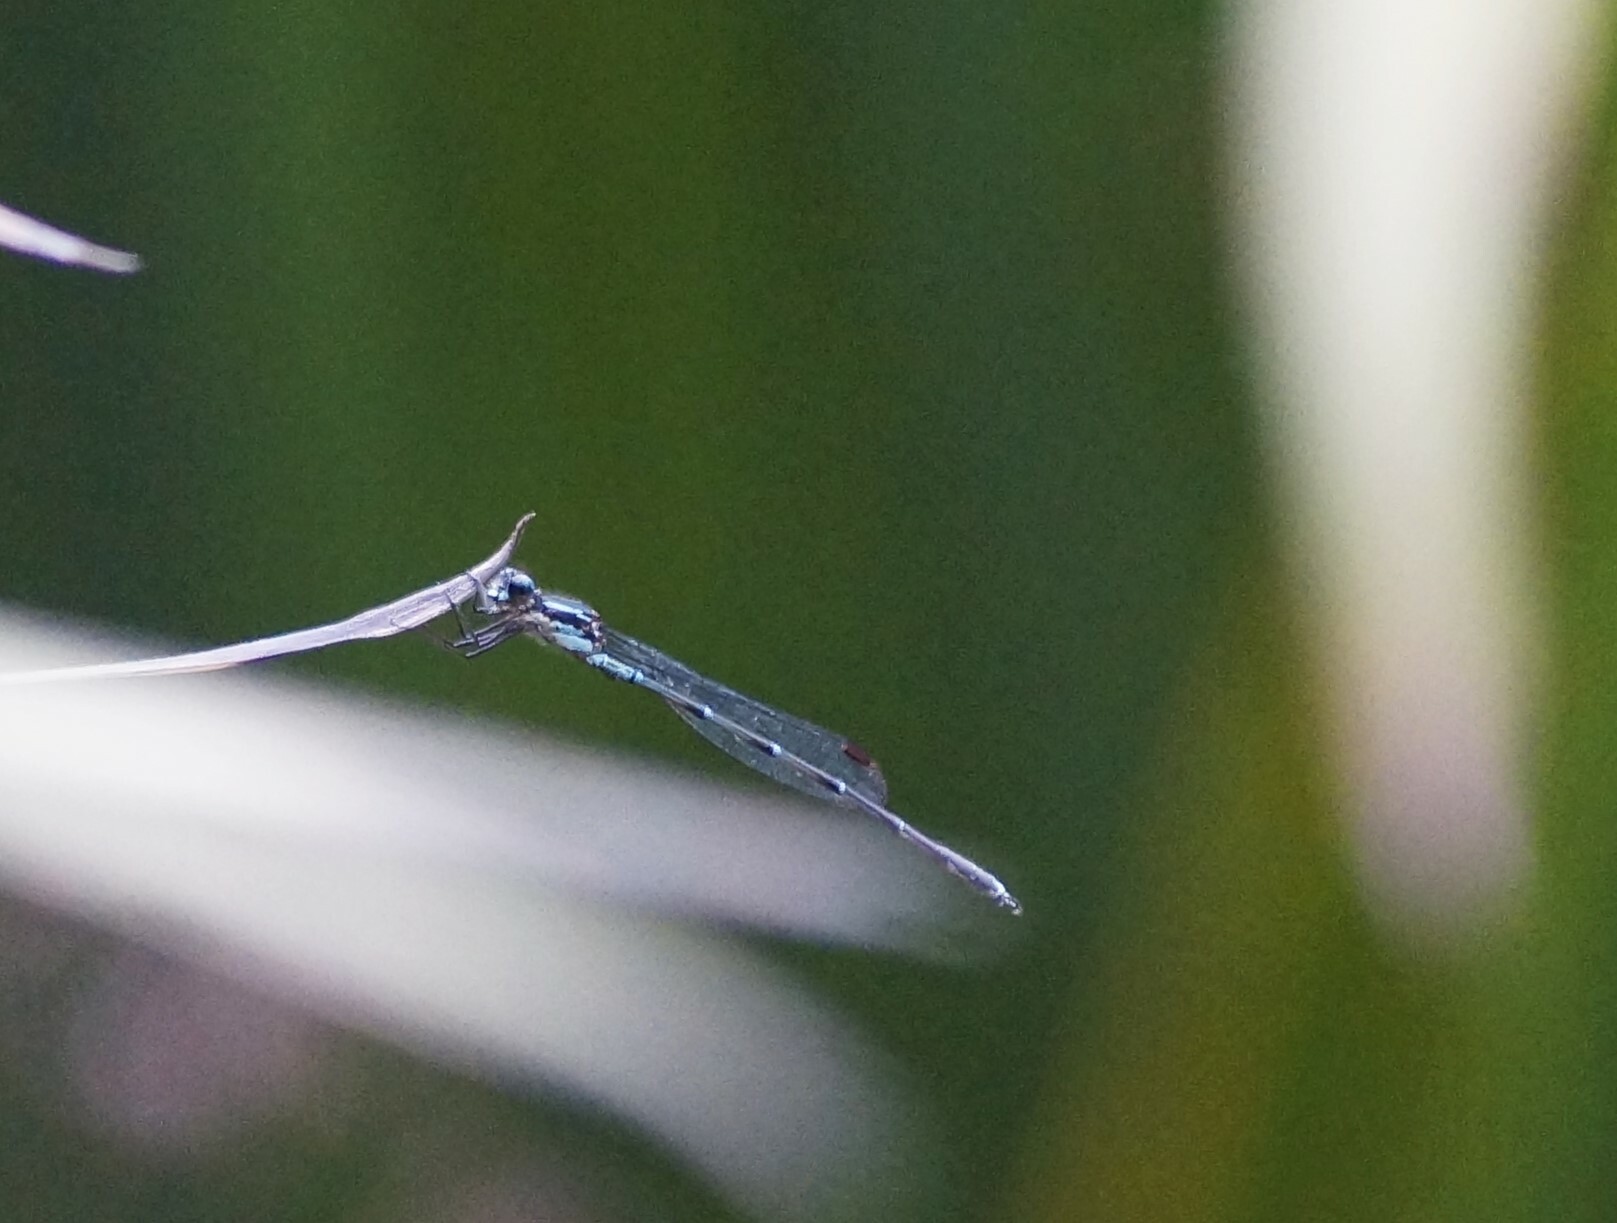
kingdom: Animalia
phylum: Arthropoda
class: Insecta
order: Odonata
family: Lestidae
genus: Austrolestes
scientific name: Austrolestes colensonis
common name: Blue damselfly
